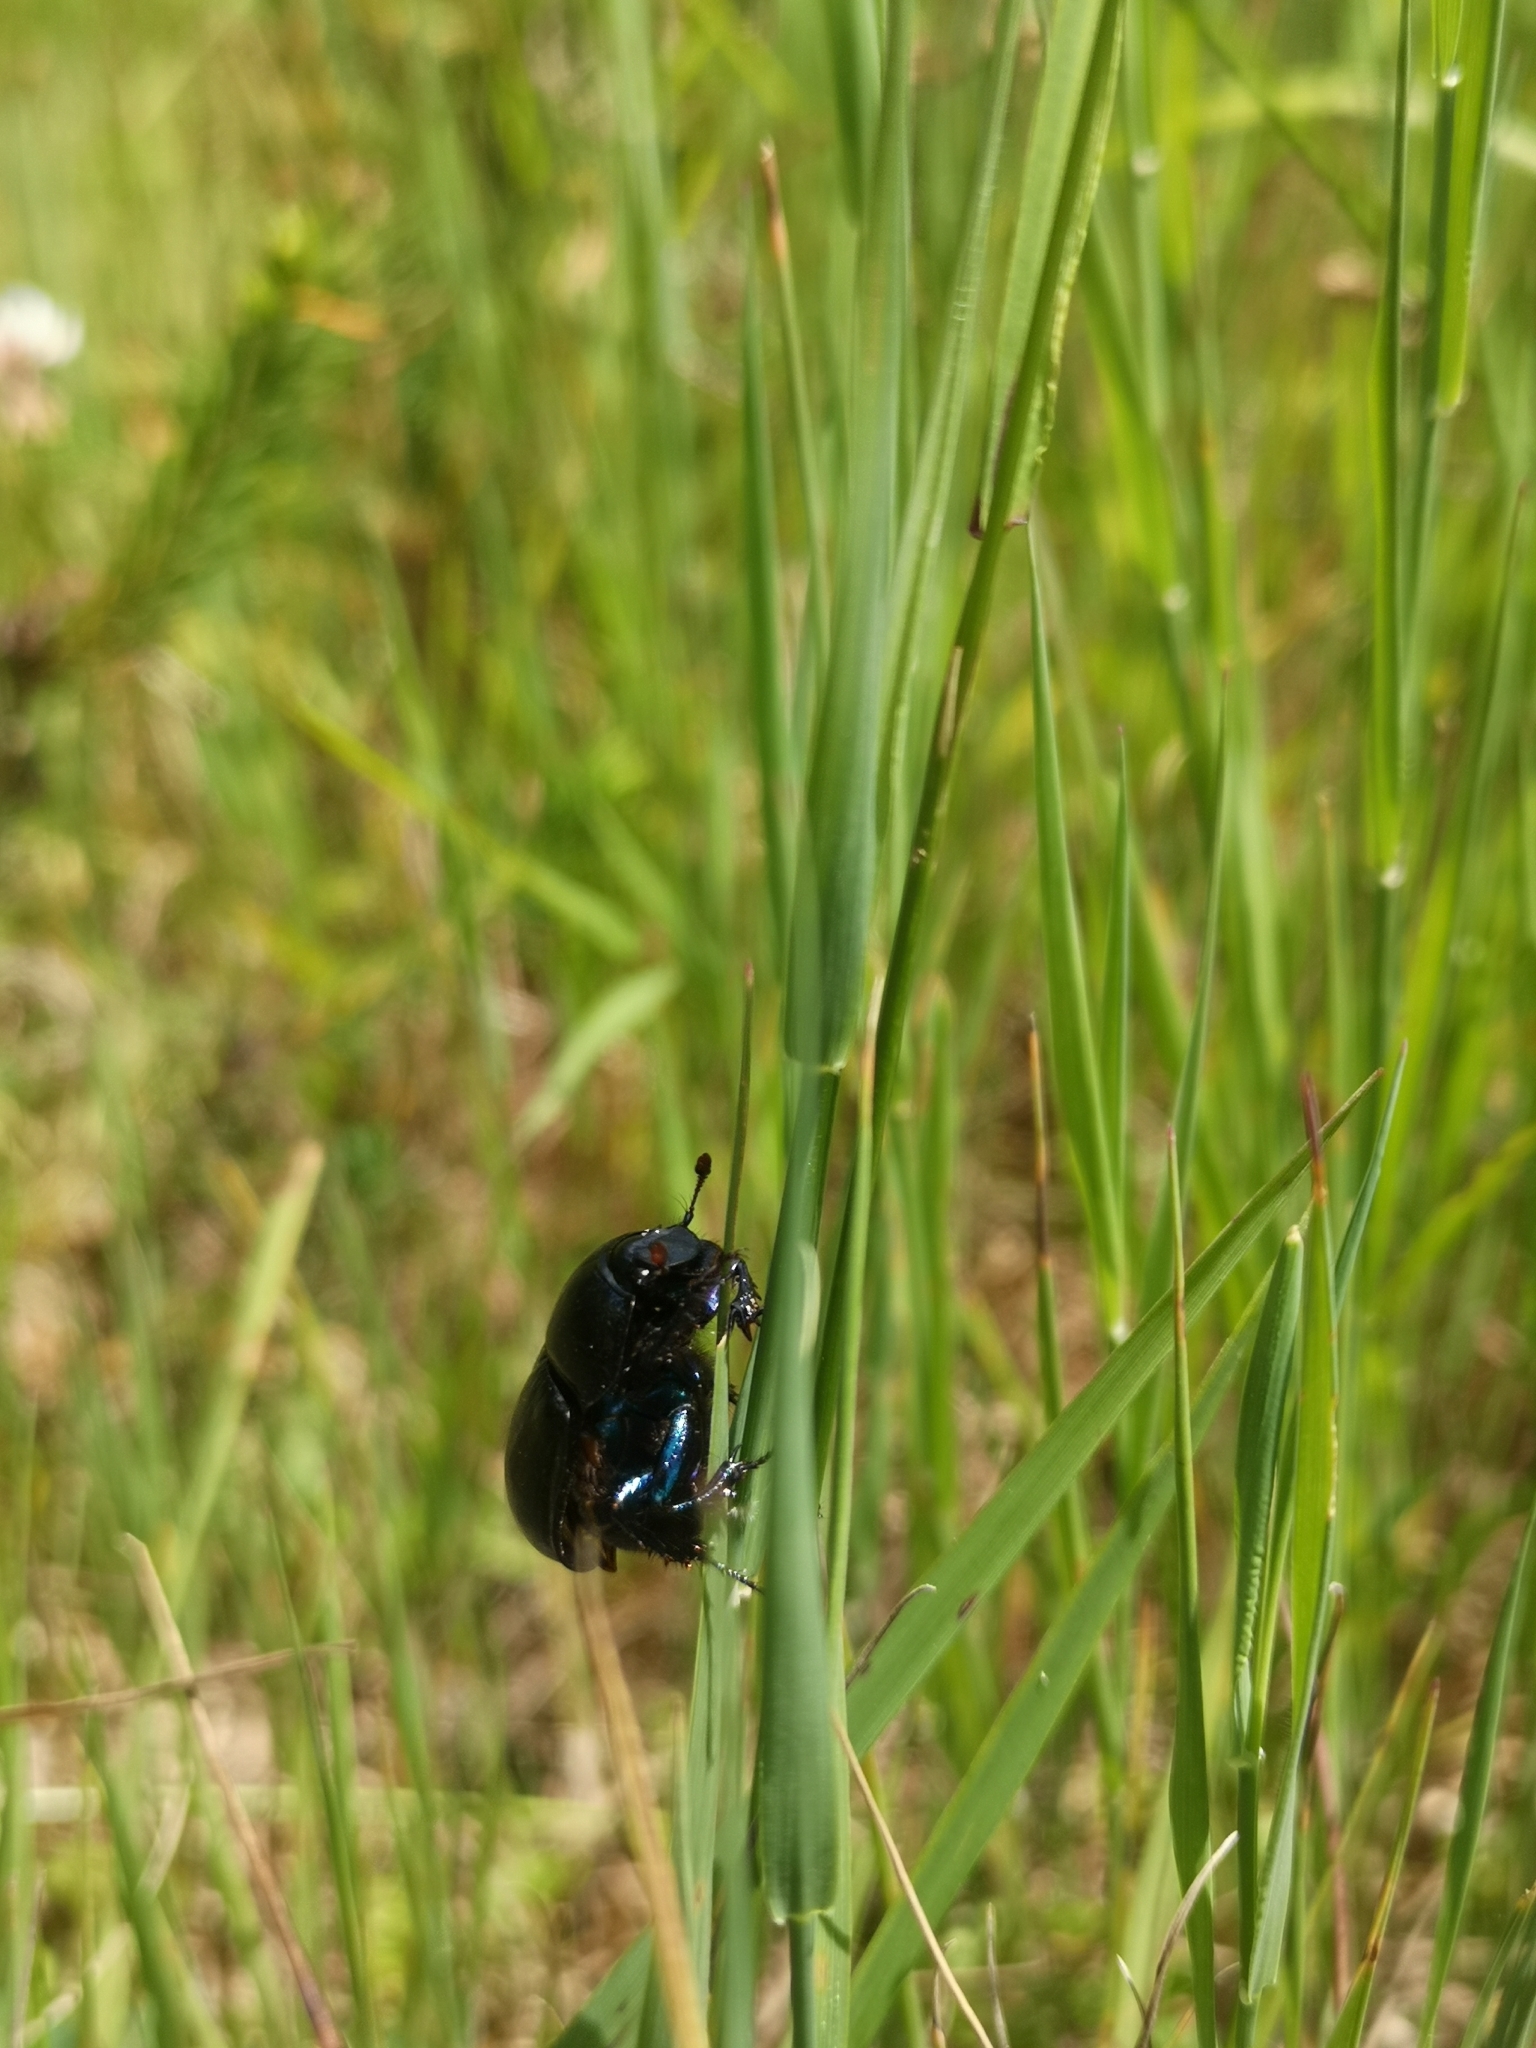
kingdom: Animalia
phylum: Arthropoda
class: Insecta
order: Coleoptera
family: Geotrupidae
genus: Anoplotrupes
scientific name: Anoplotrupes stercorosus
